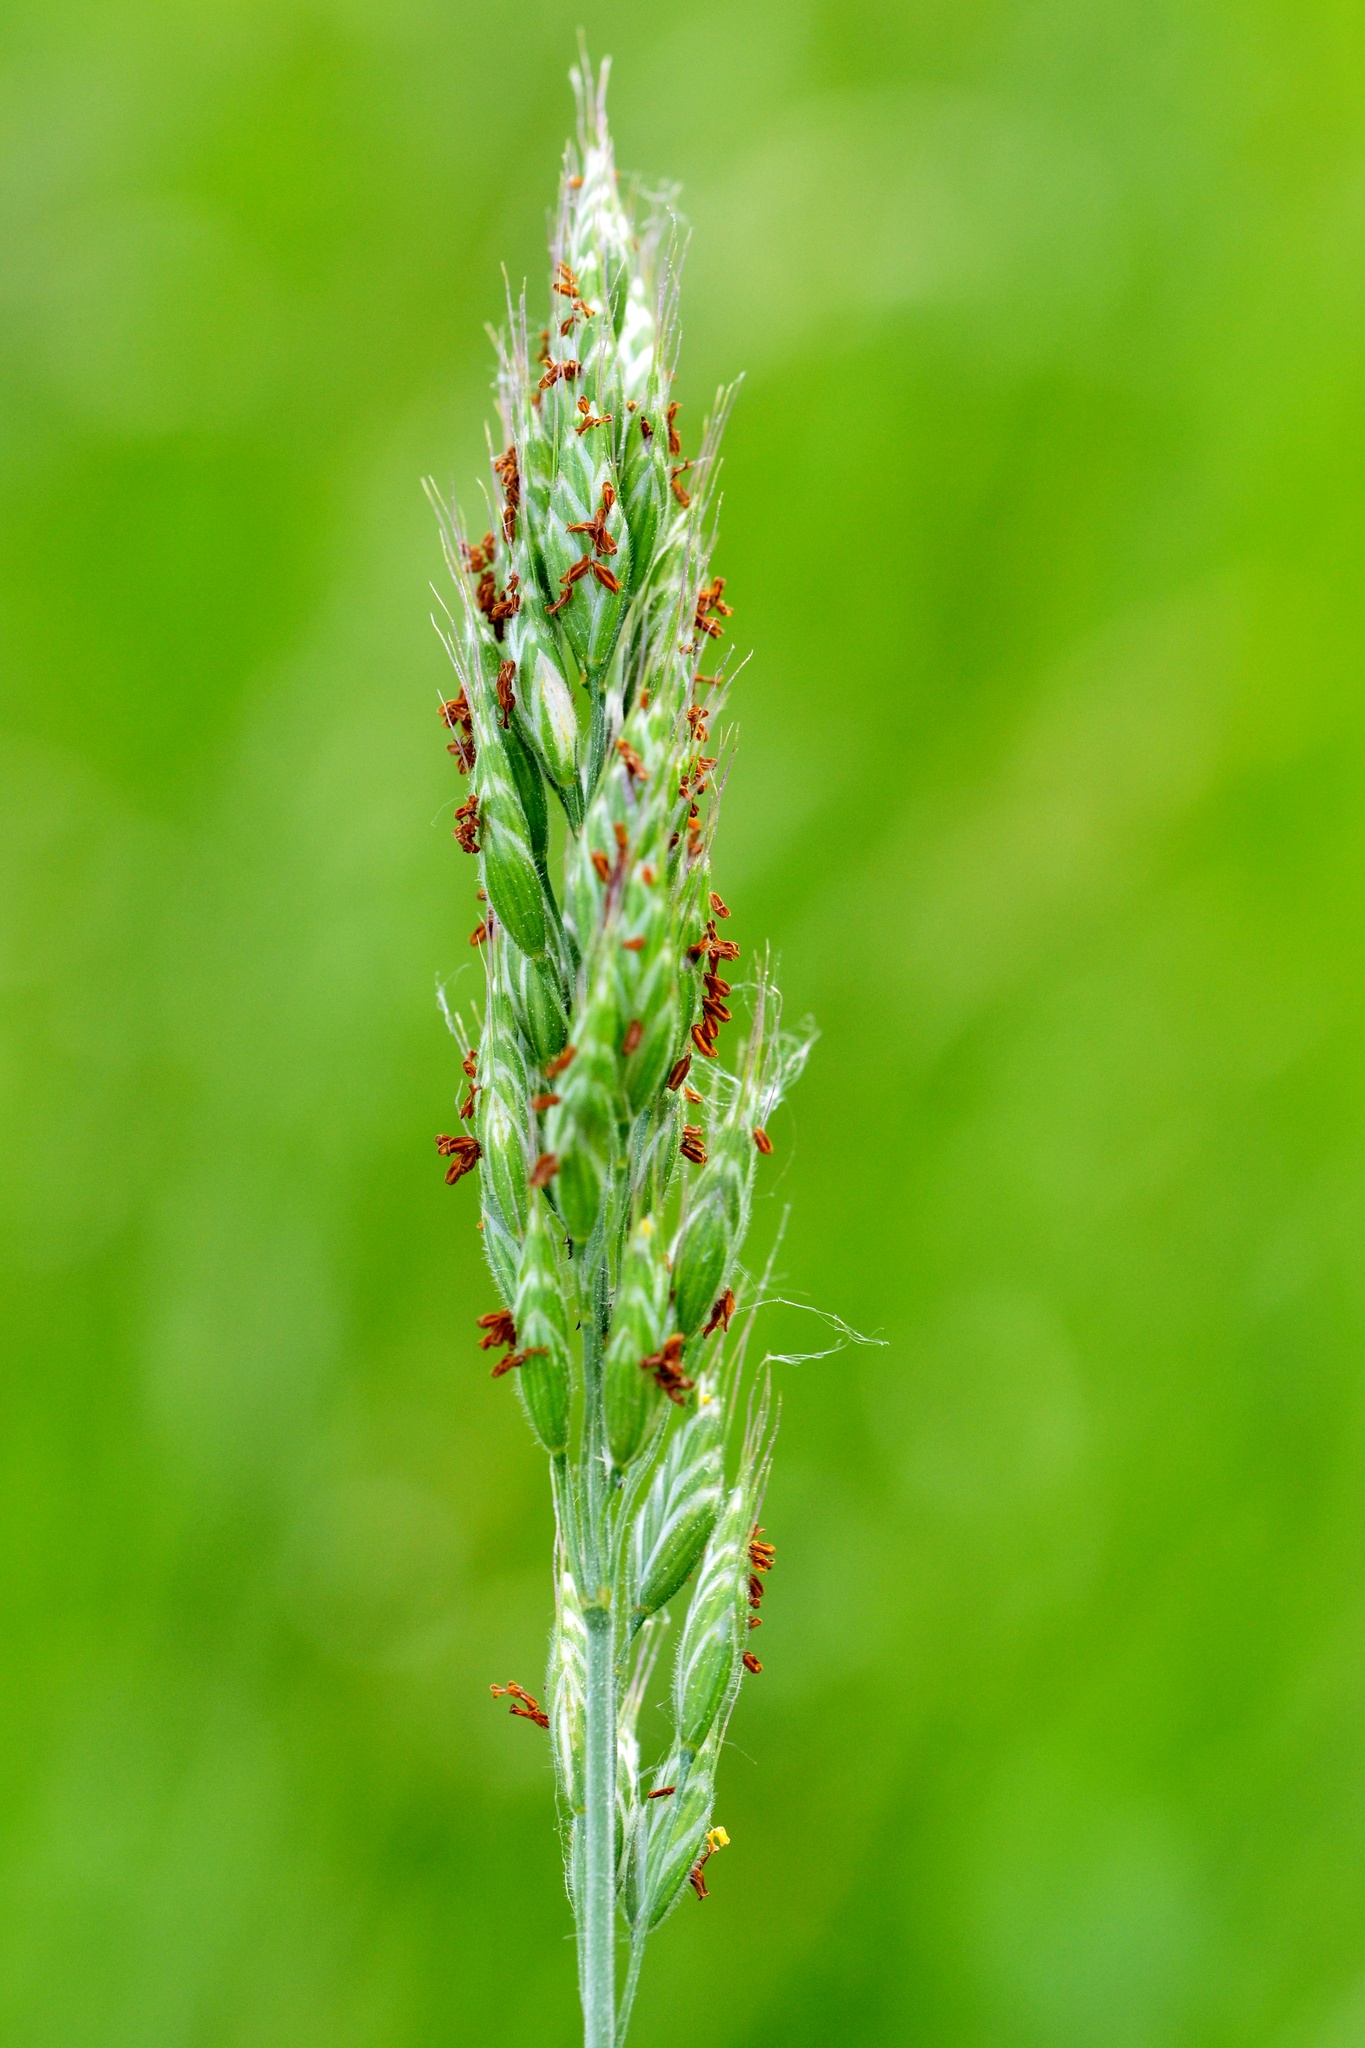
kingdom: Plantae
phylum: Tracheophyta
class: Liliopsida
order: Poales
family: Poaceae
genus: Bromus
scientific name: Bromus hordeaceus
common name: Soft brome
